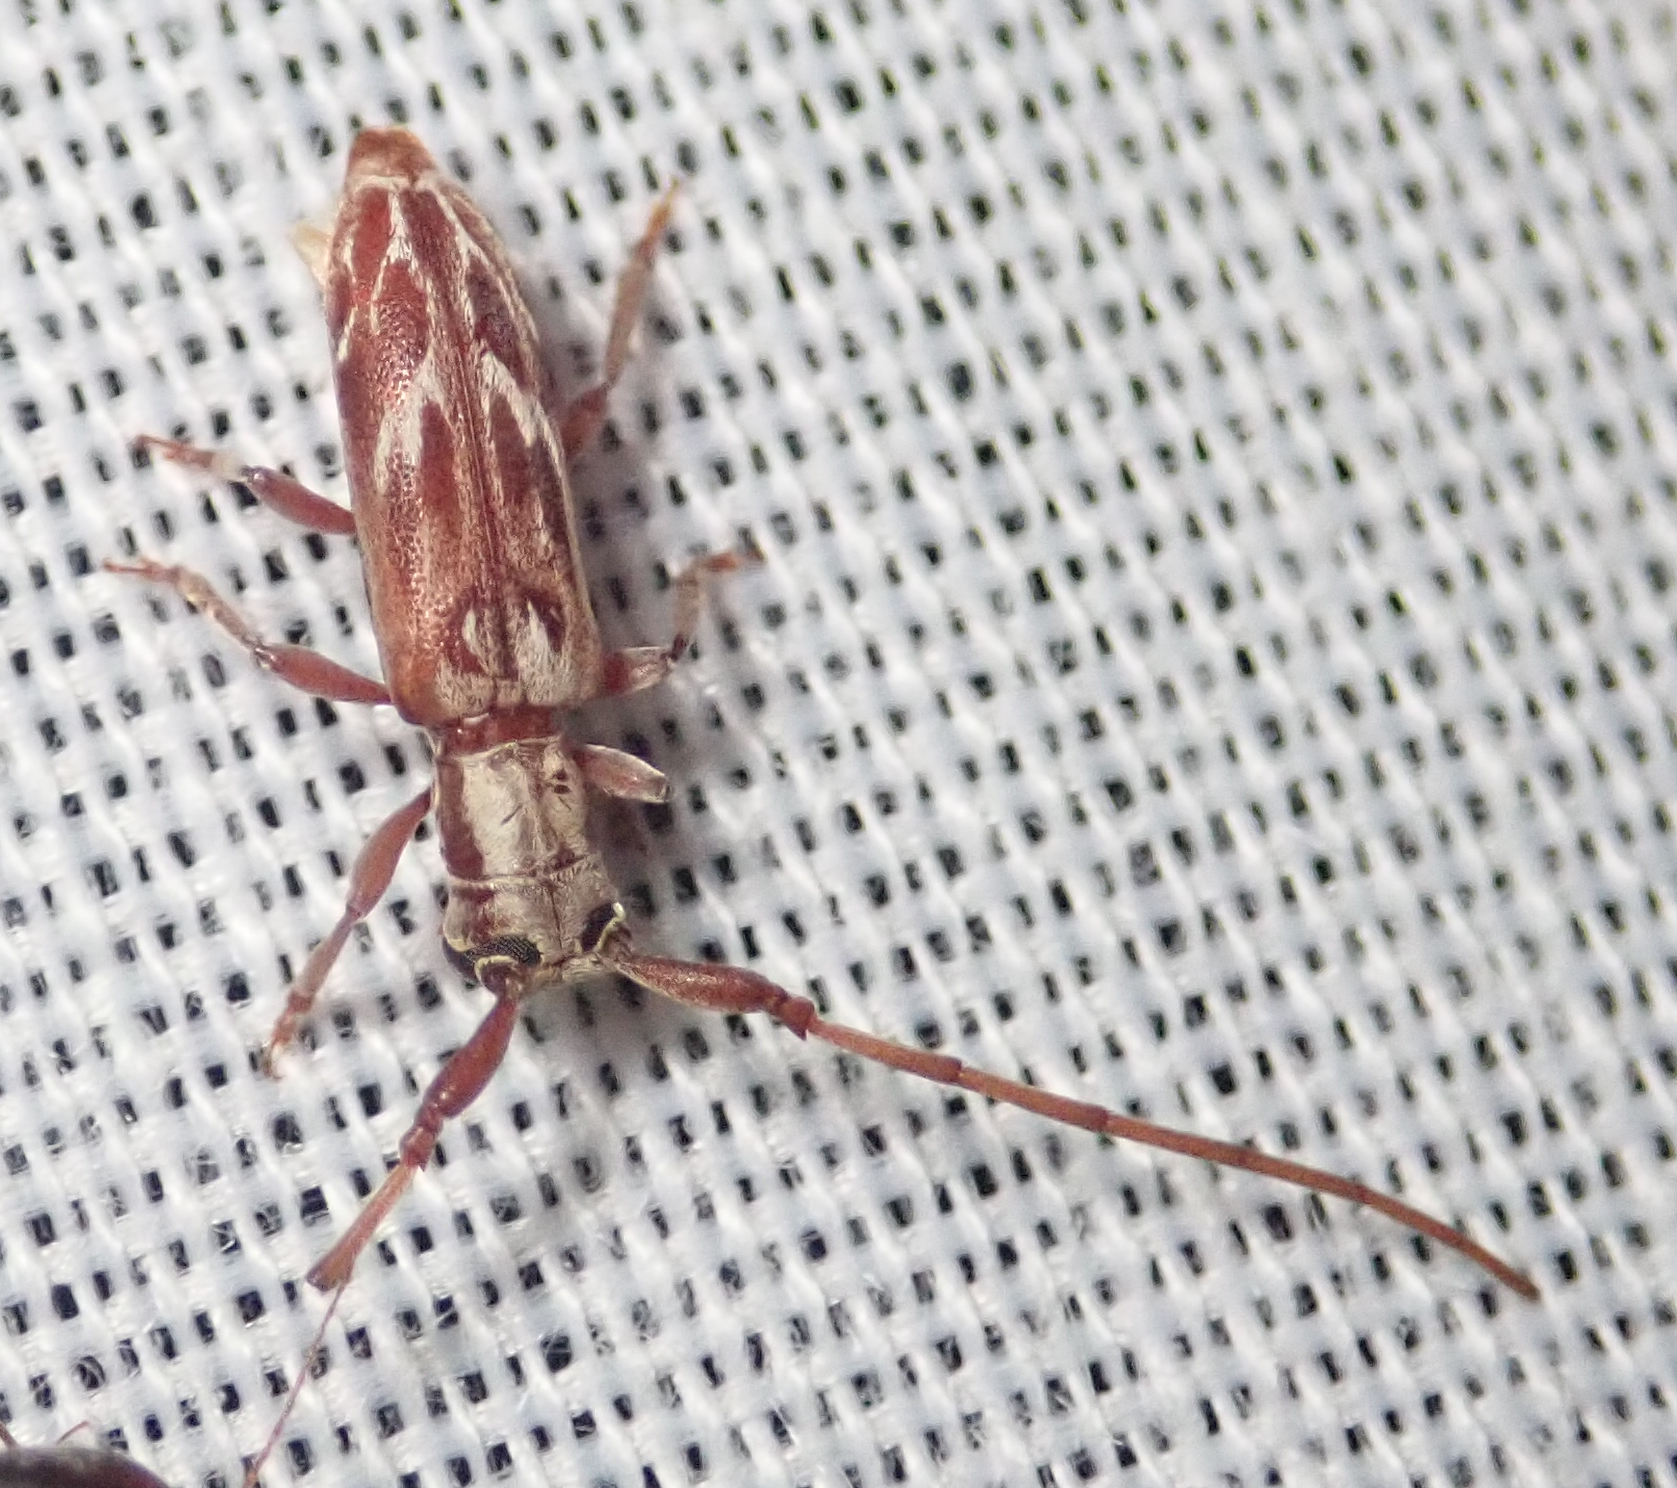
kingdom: Animalia
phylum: Arthropoda
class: Insecta
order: Coleoptera
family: Cerambycidae
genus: Eunidia
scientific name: Eunidia strigata
